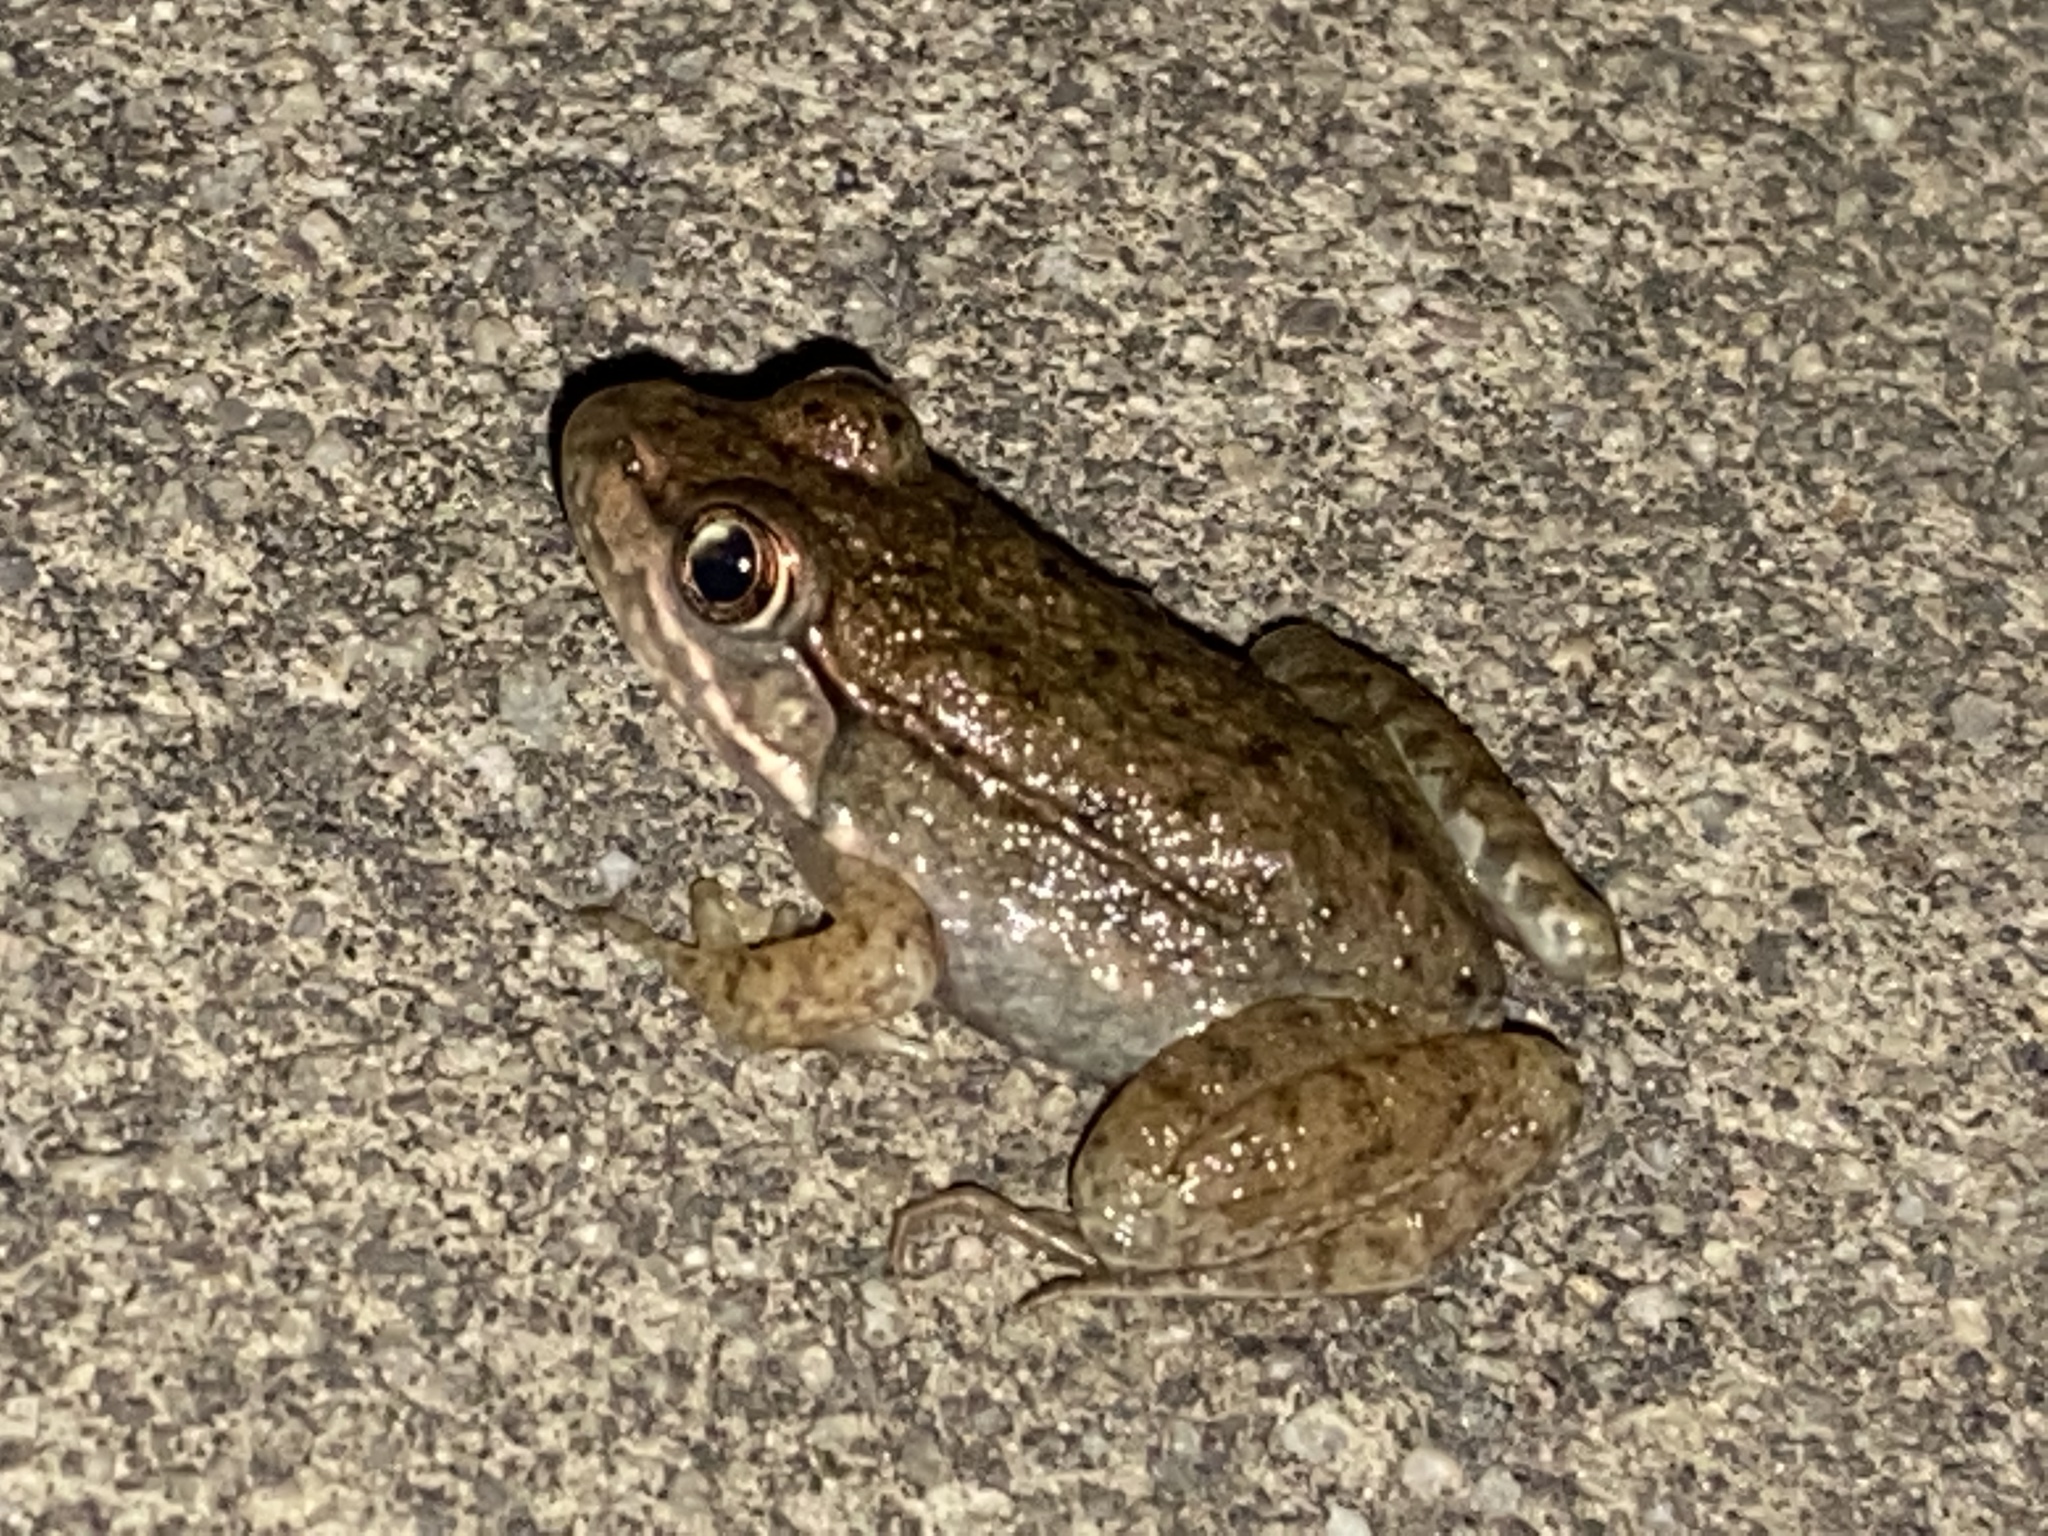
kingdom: Animalia
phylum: Chordata
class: Amphibia
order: Anura
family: Ranidae
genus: Lithobates
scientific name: Lithobates clamitans
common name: Green frog
